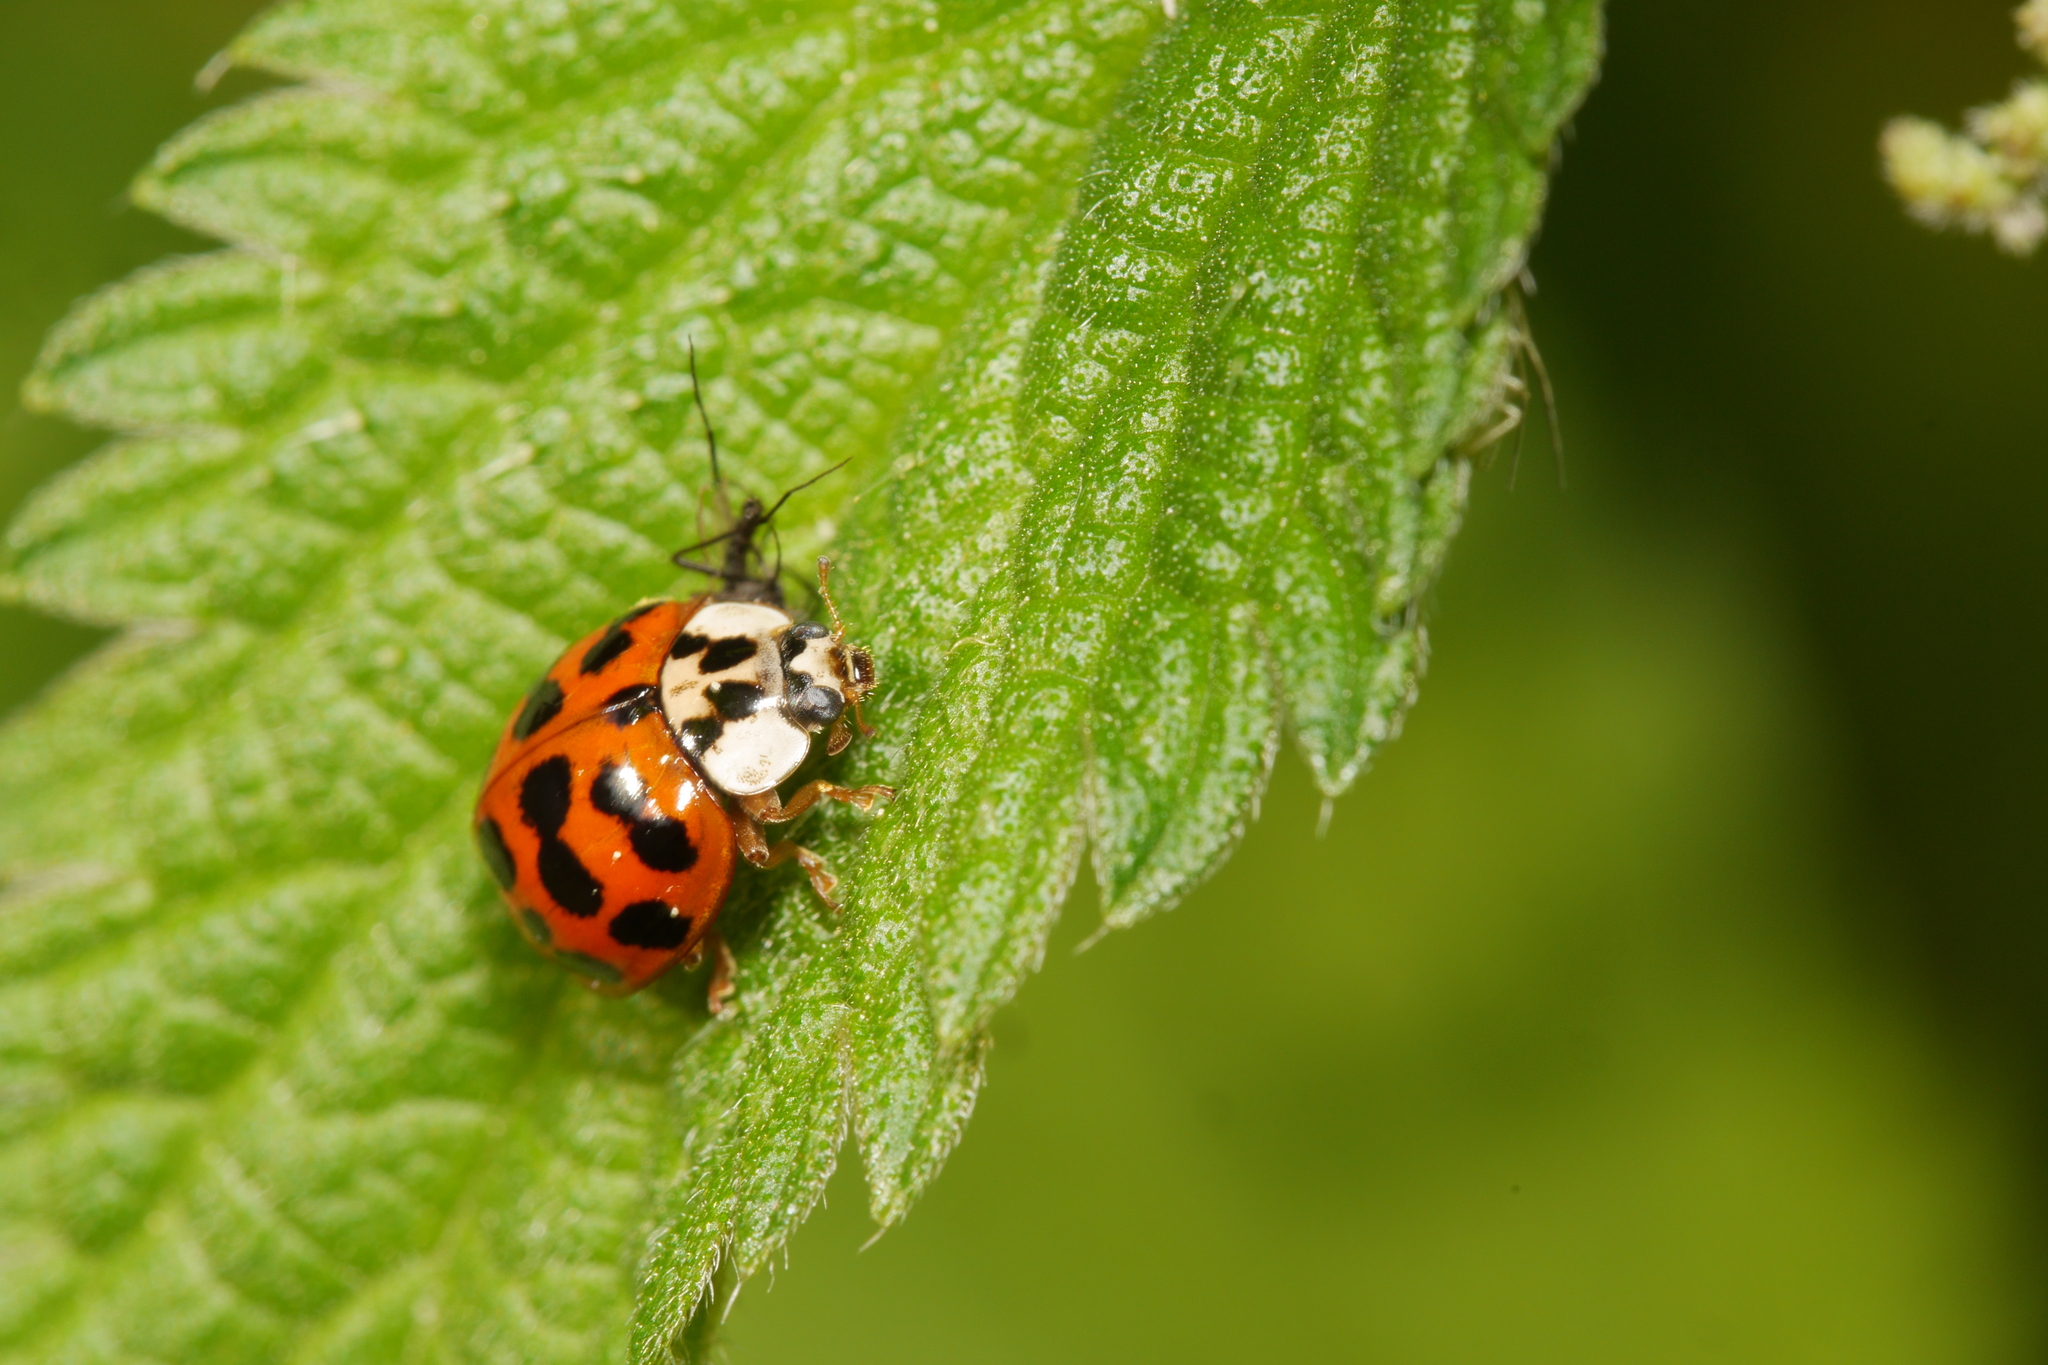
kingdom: Animalia
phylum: Arthropoda
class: Insecta
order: Coleoptera
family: Coccinellidae
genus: Harmonia
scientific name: Harmonia axyridis
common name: Harlequin ladybird
